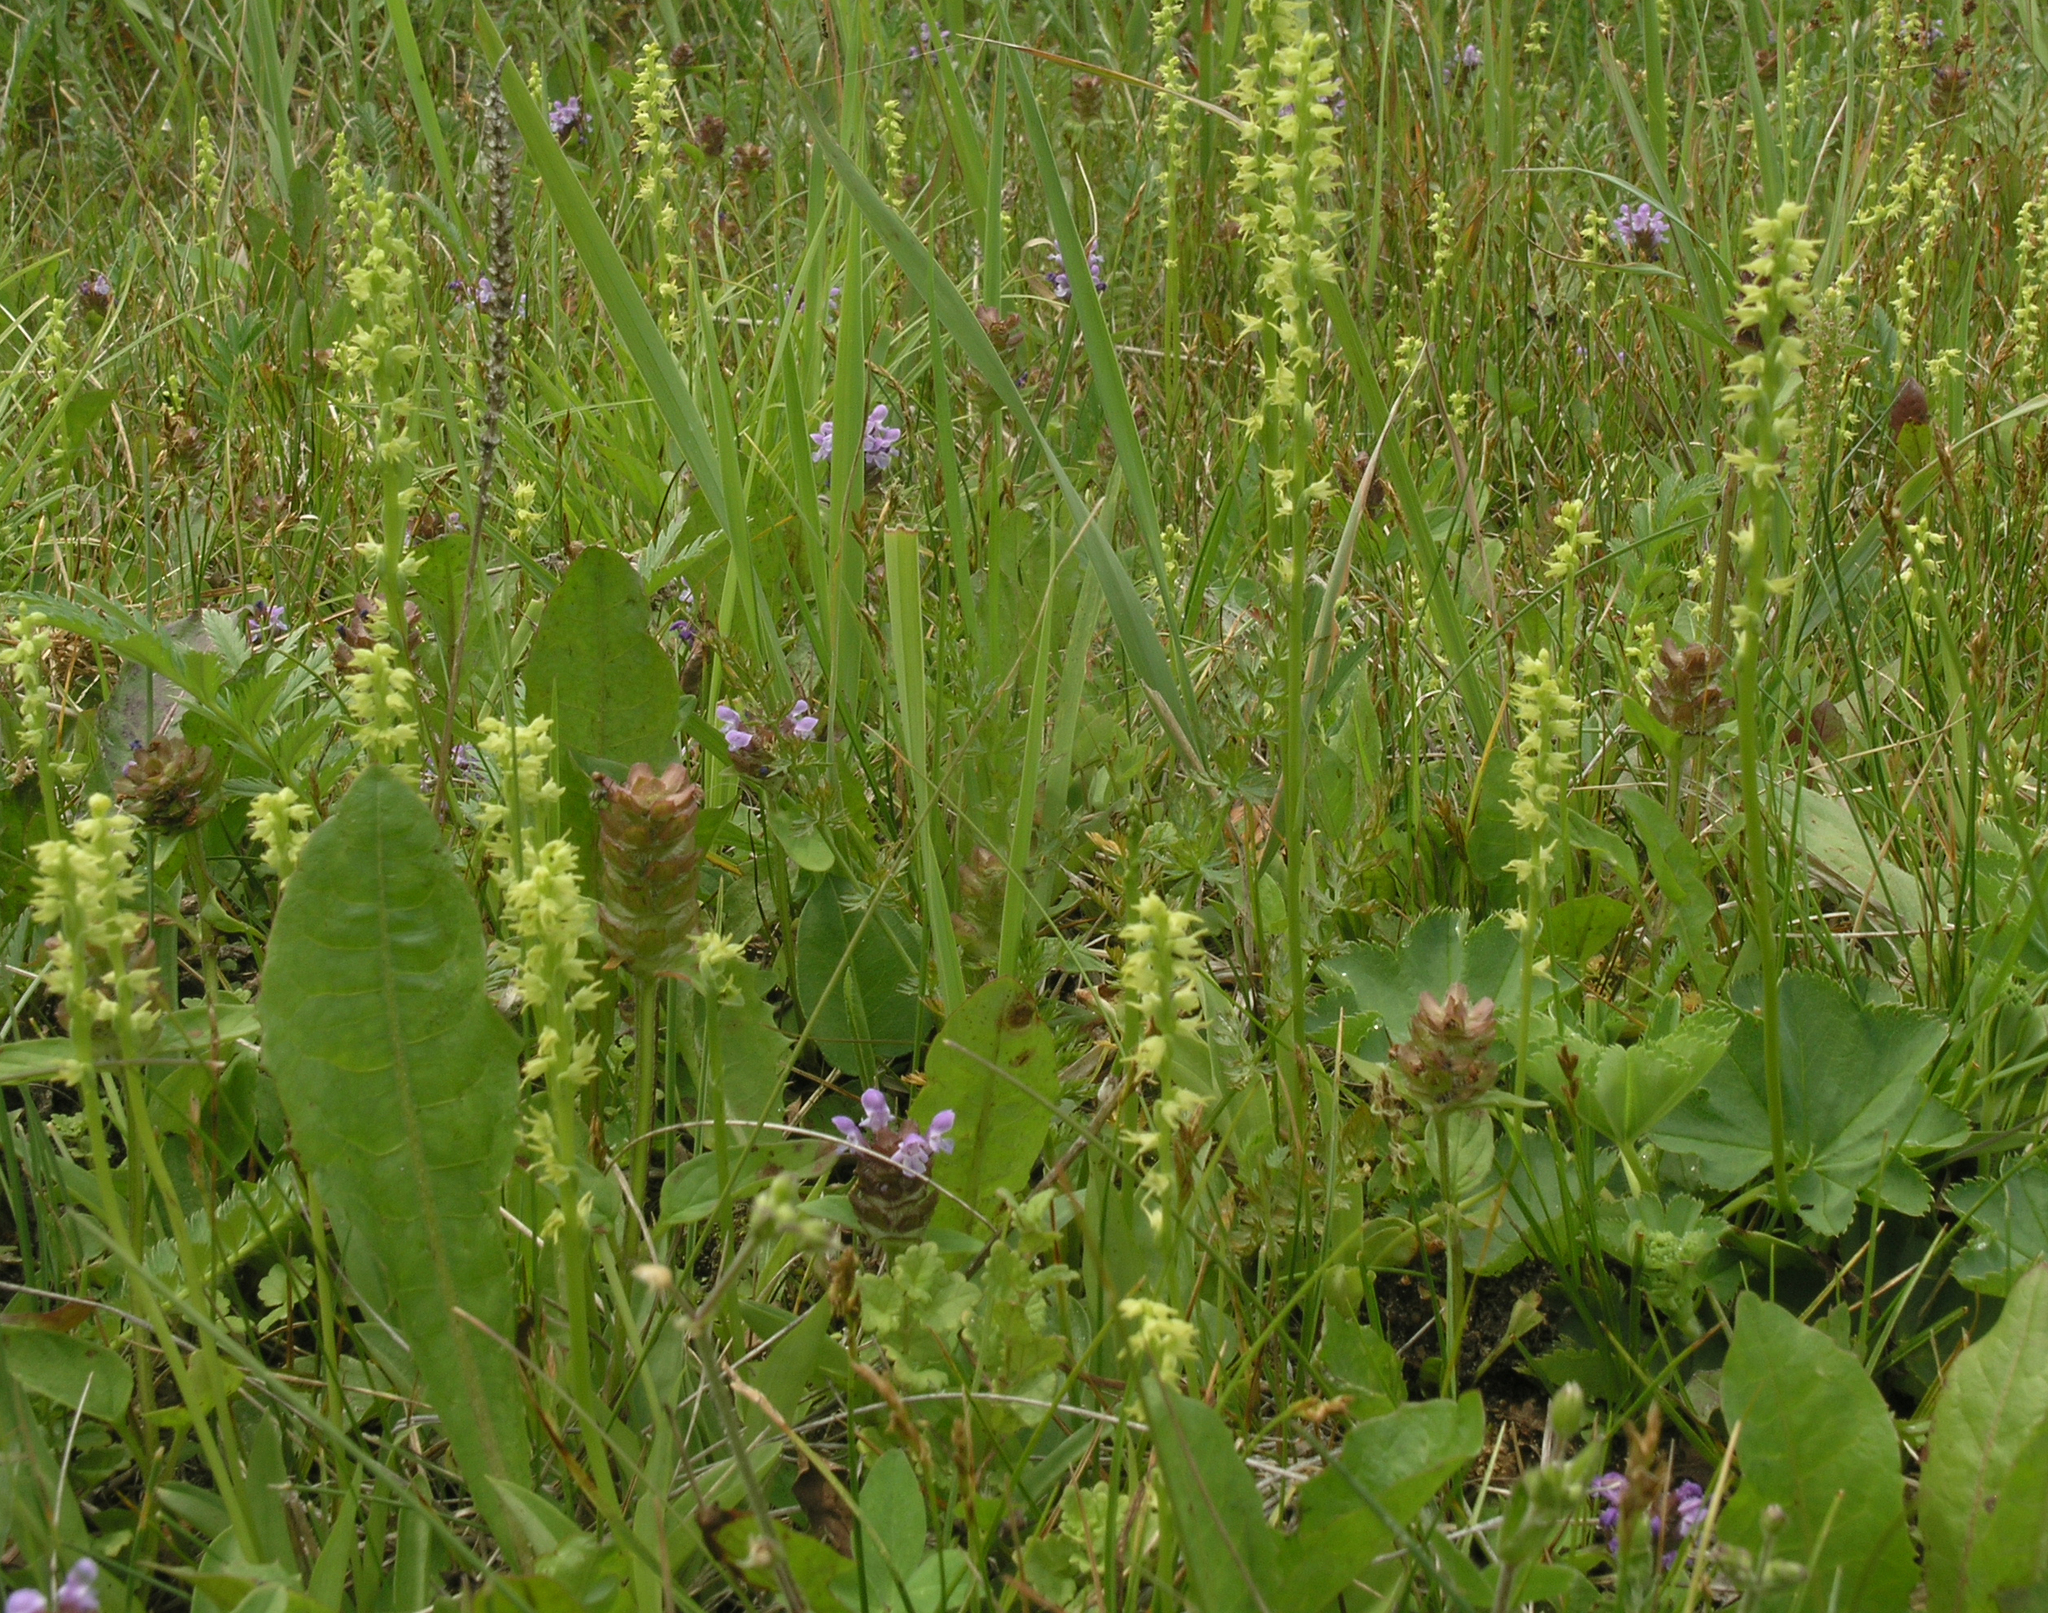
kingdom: Plantae
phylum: Tracheophyta
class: Magnoliopsida
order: Lamiales
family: Lamiaceae
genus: Prunella
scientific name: Prunella vulgaris
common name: Heal-all
